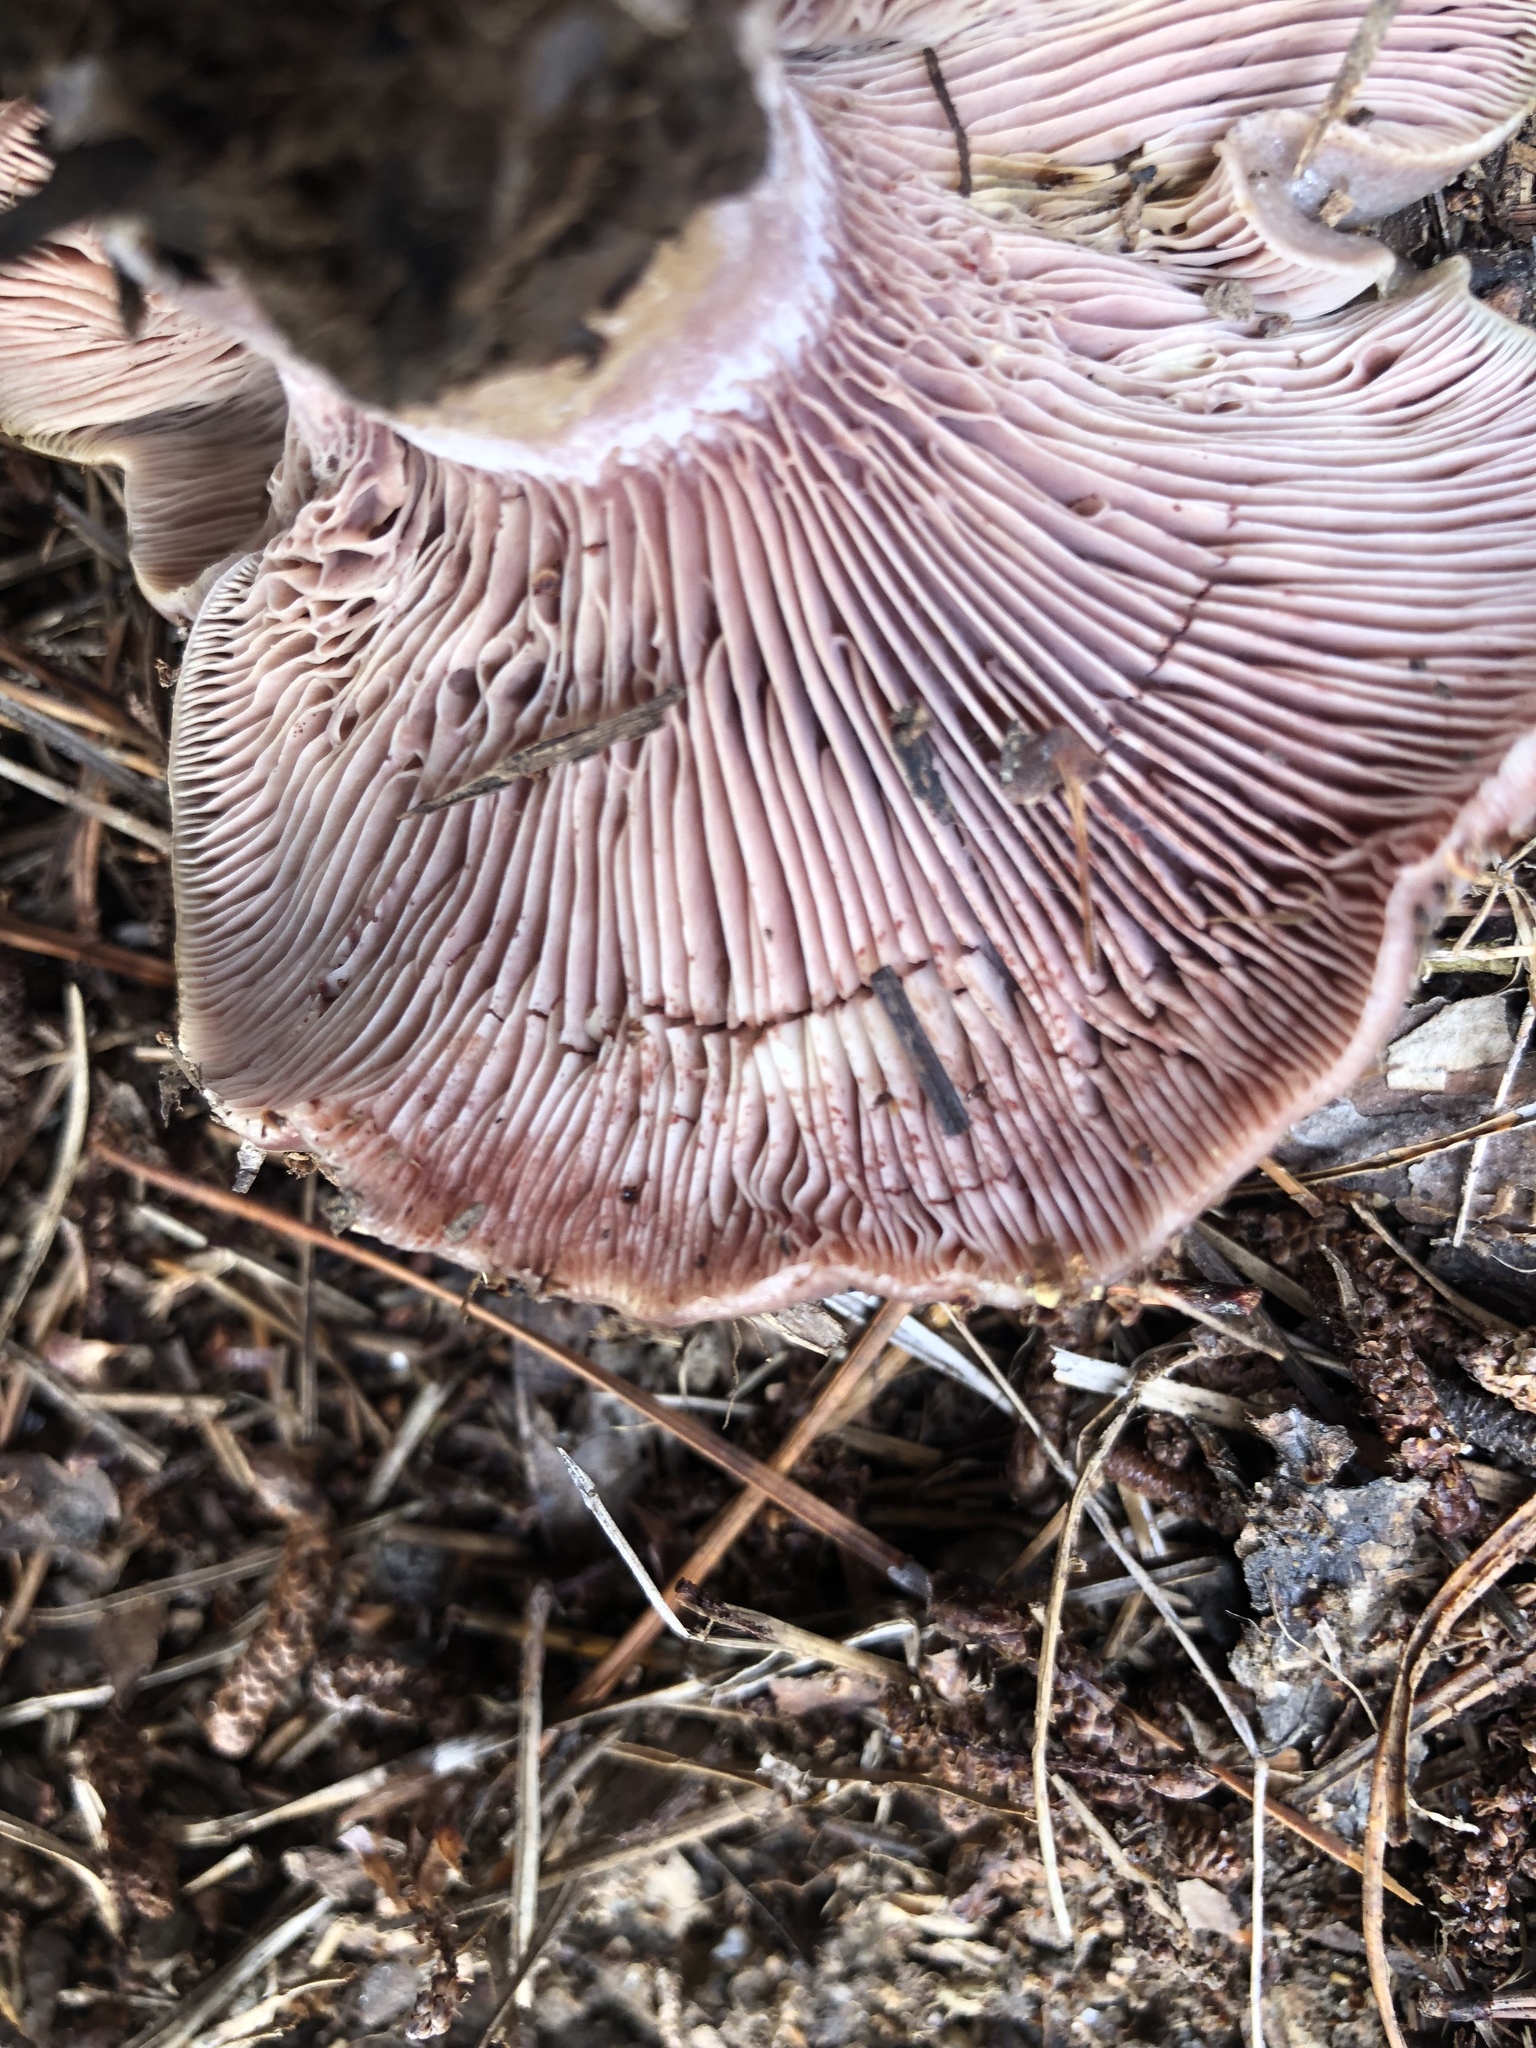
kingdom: Fungi
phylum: Basidiomycota
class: Agaricomycetes
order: Russulales
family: Russulaceae
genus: Lactarius
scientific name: Lactarius paradoxus
